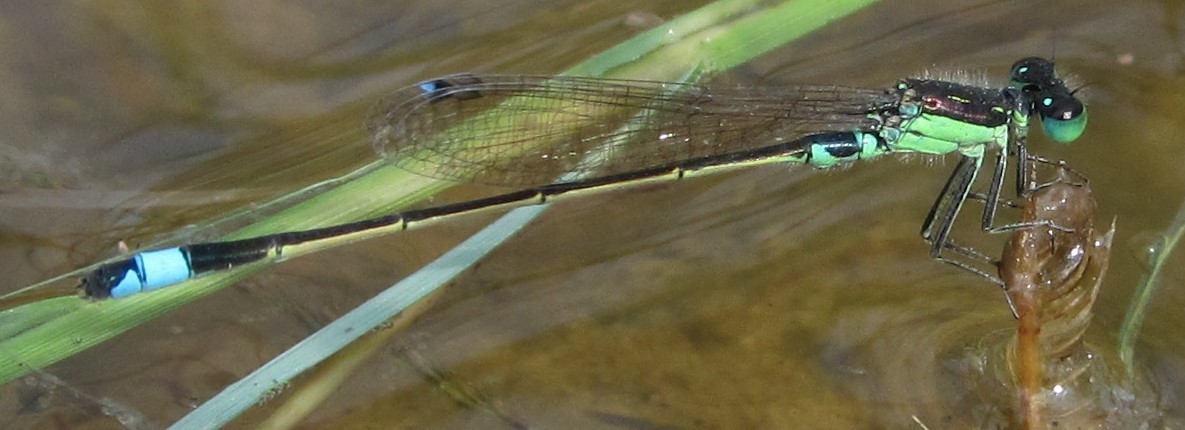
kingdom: Animalia
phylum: Arthropoda
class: Insecta
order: Odonata
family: Coenagrionidae
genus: Ischnura
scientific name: Ischnura senegalensis
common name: Tropical bluetail
